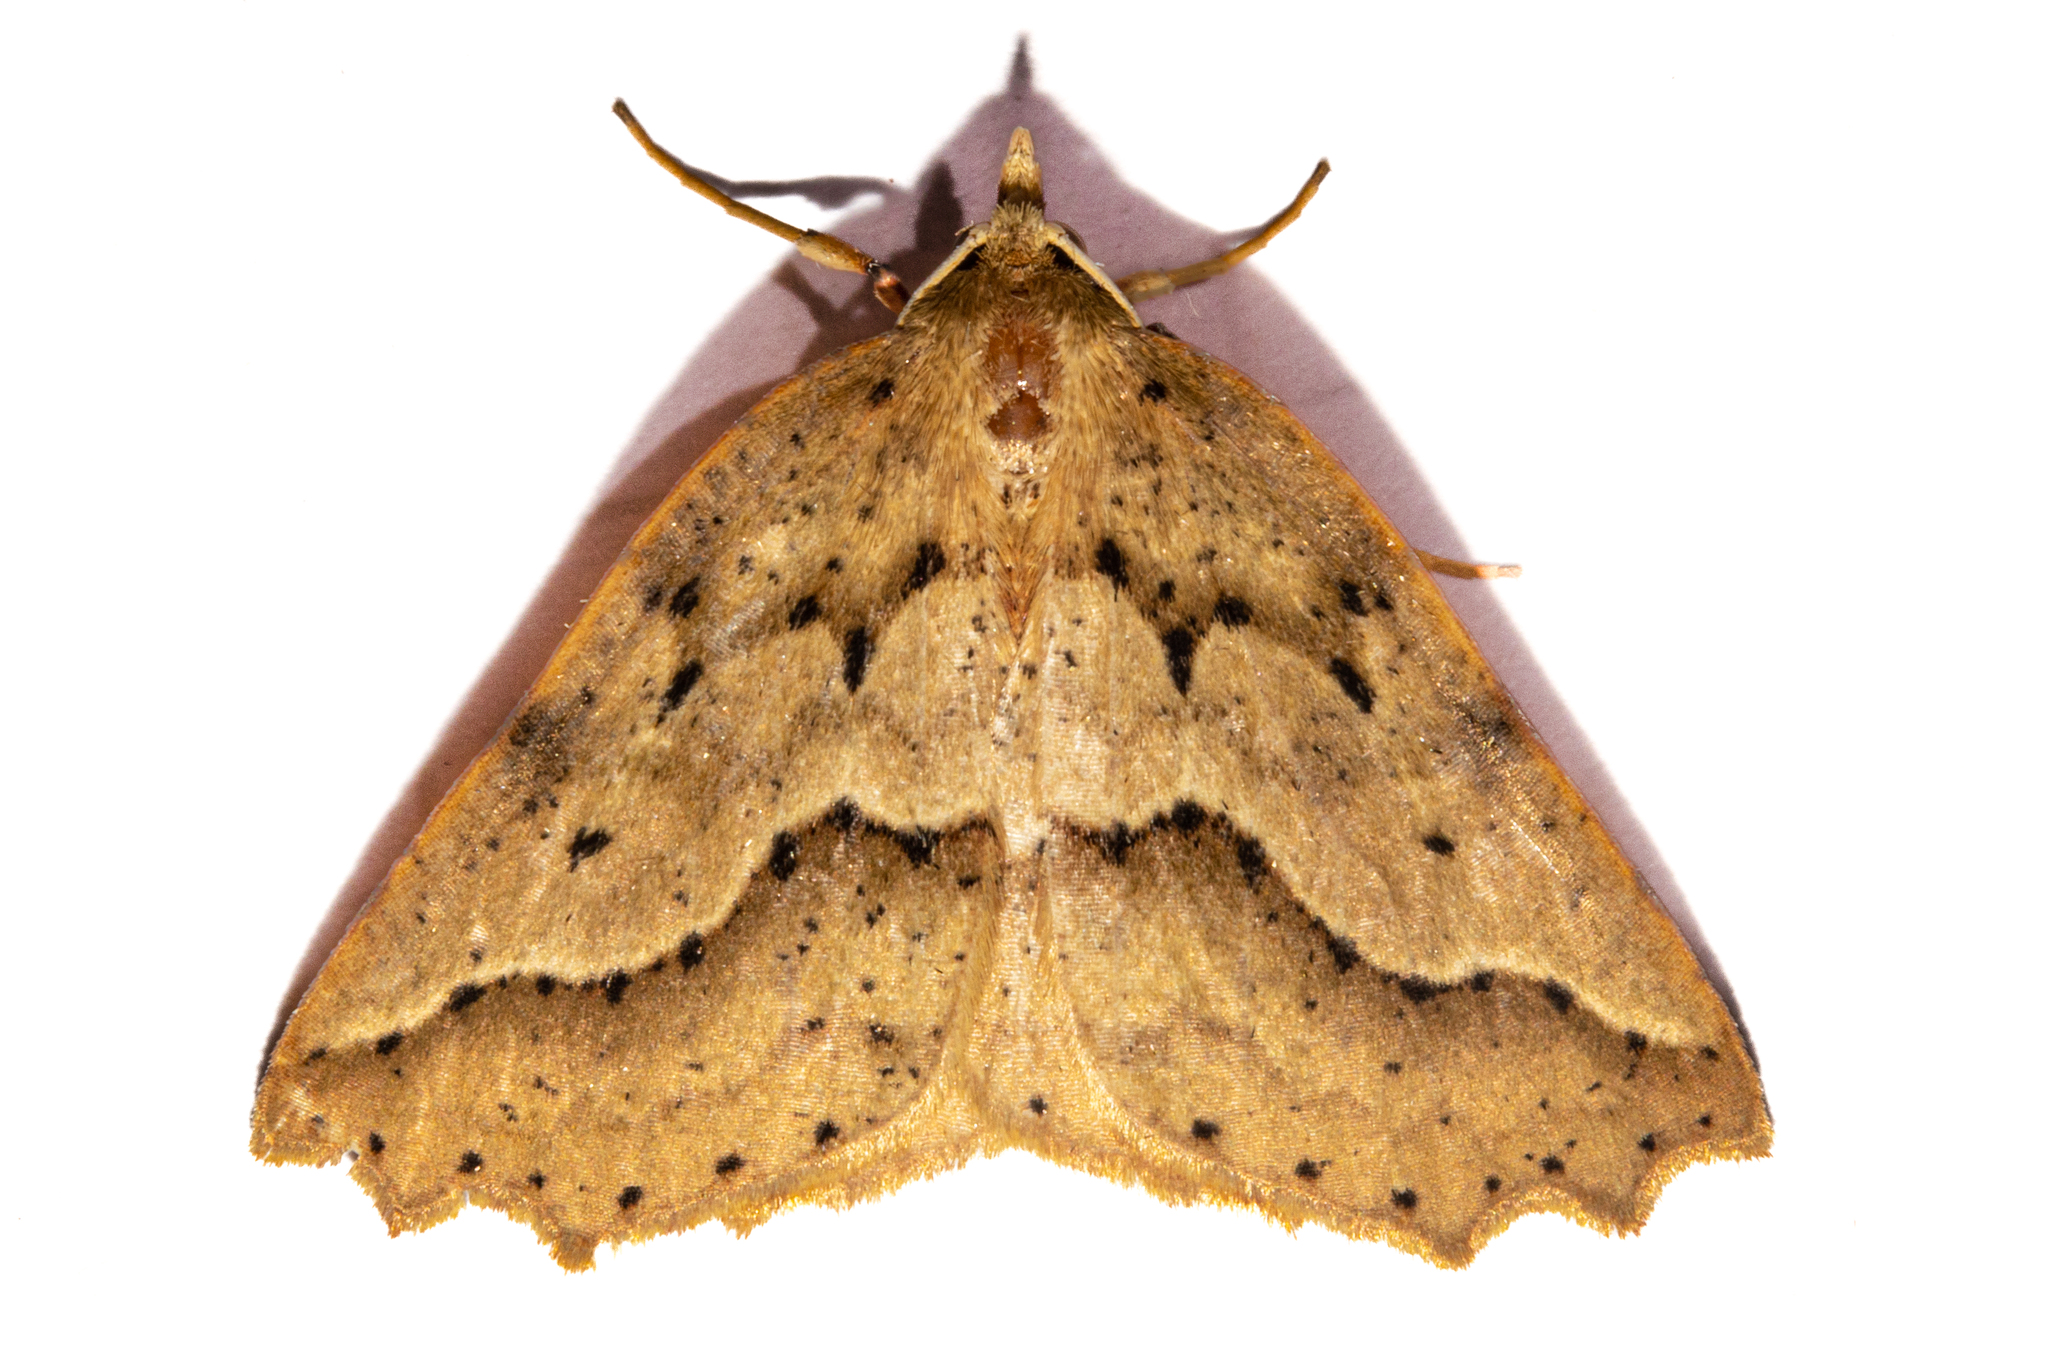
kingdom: Animalia
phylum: Arthropoda
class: Insecta
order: Lepidoptera
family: Geometridae
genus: Ischalis
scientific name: Ischalis variabilis
